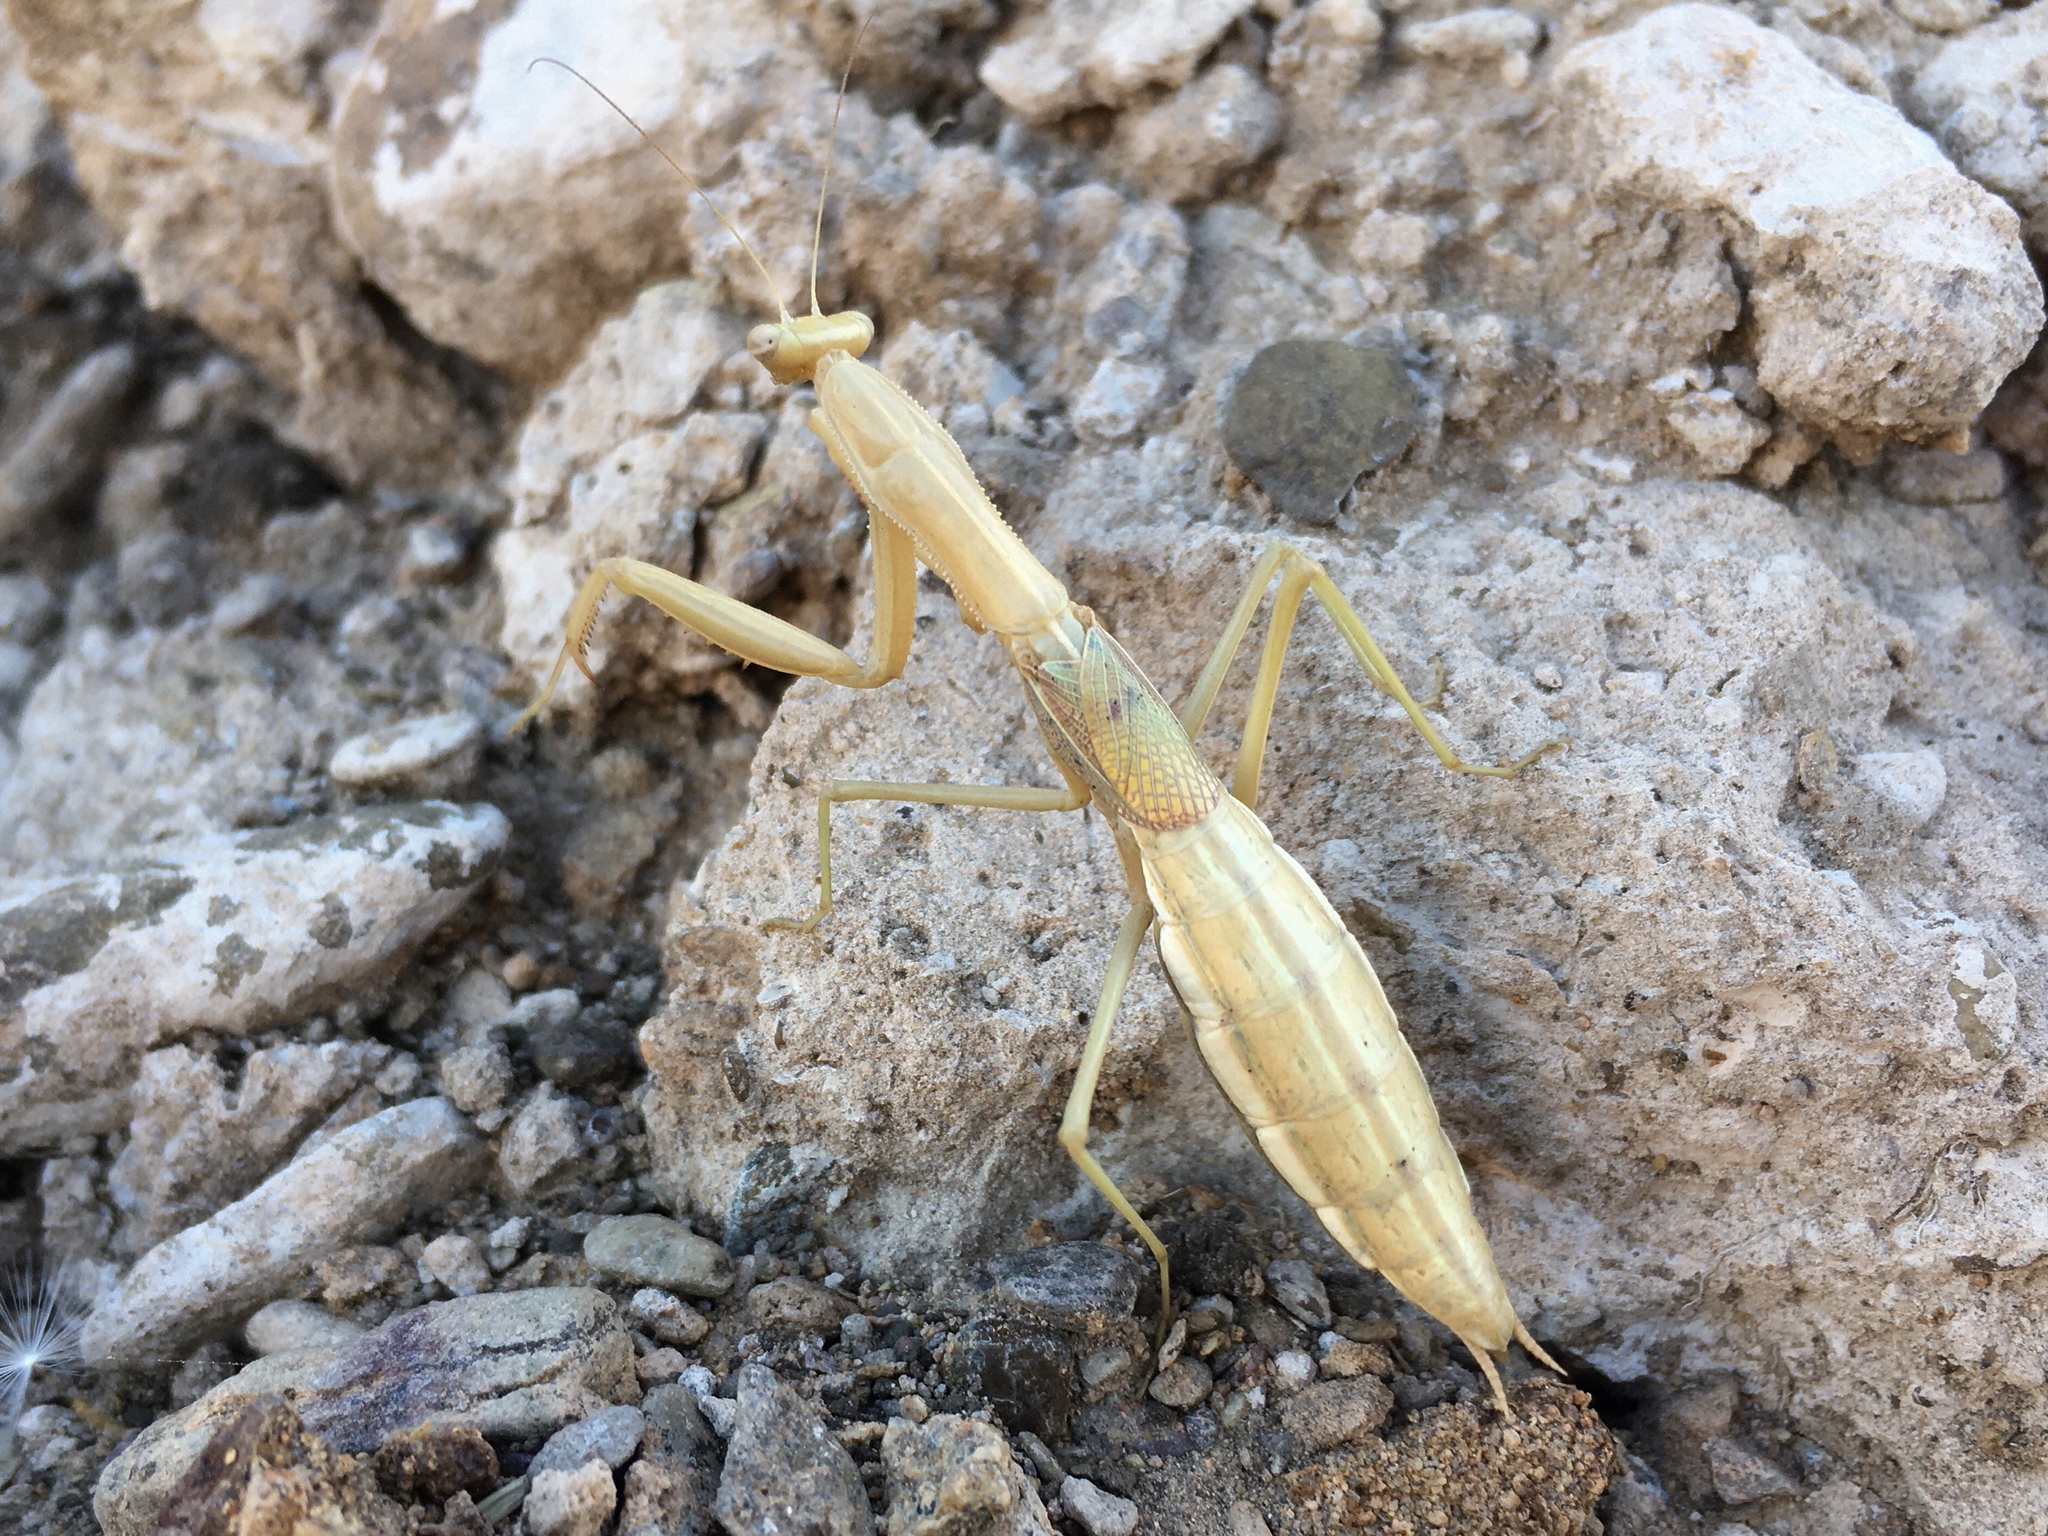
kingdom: Animalia
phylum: Arthropoda
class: Insecta
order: Mantodea
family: Coptopterygidae
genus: Coptopteryx
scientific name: Coptopteryx argentina
